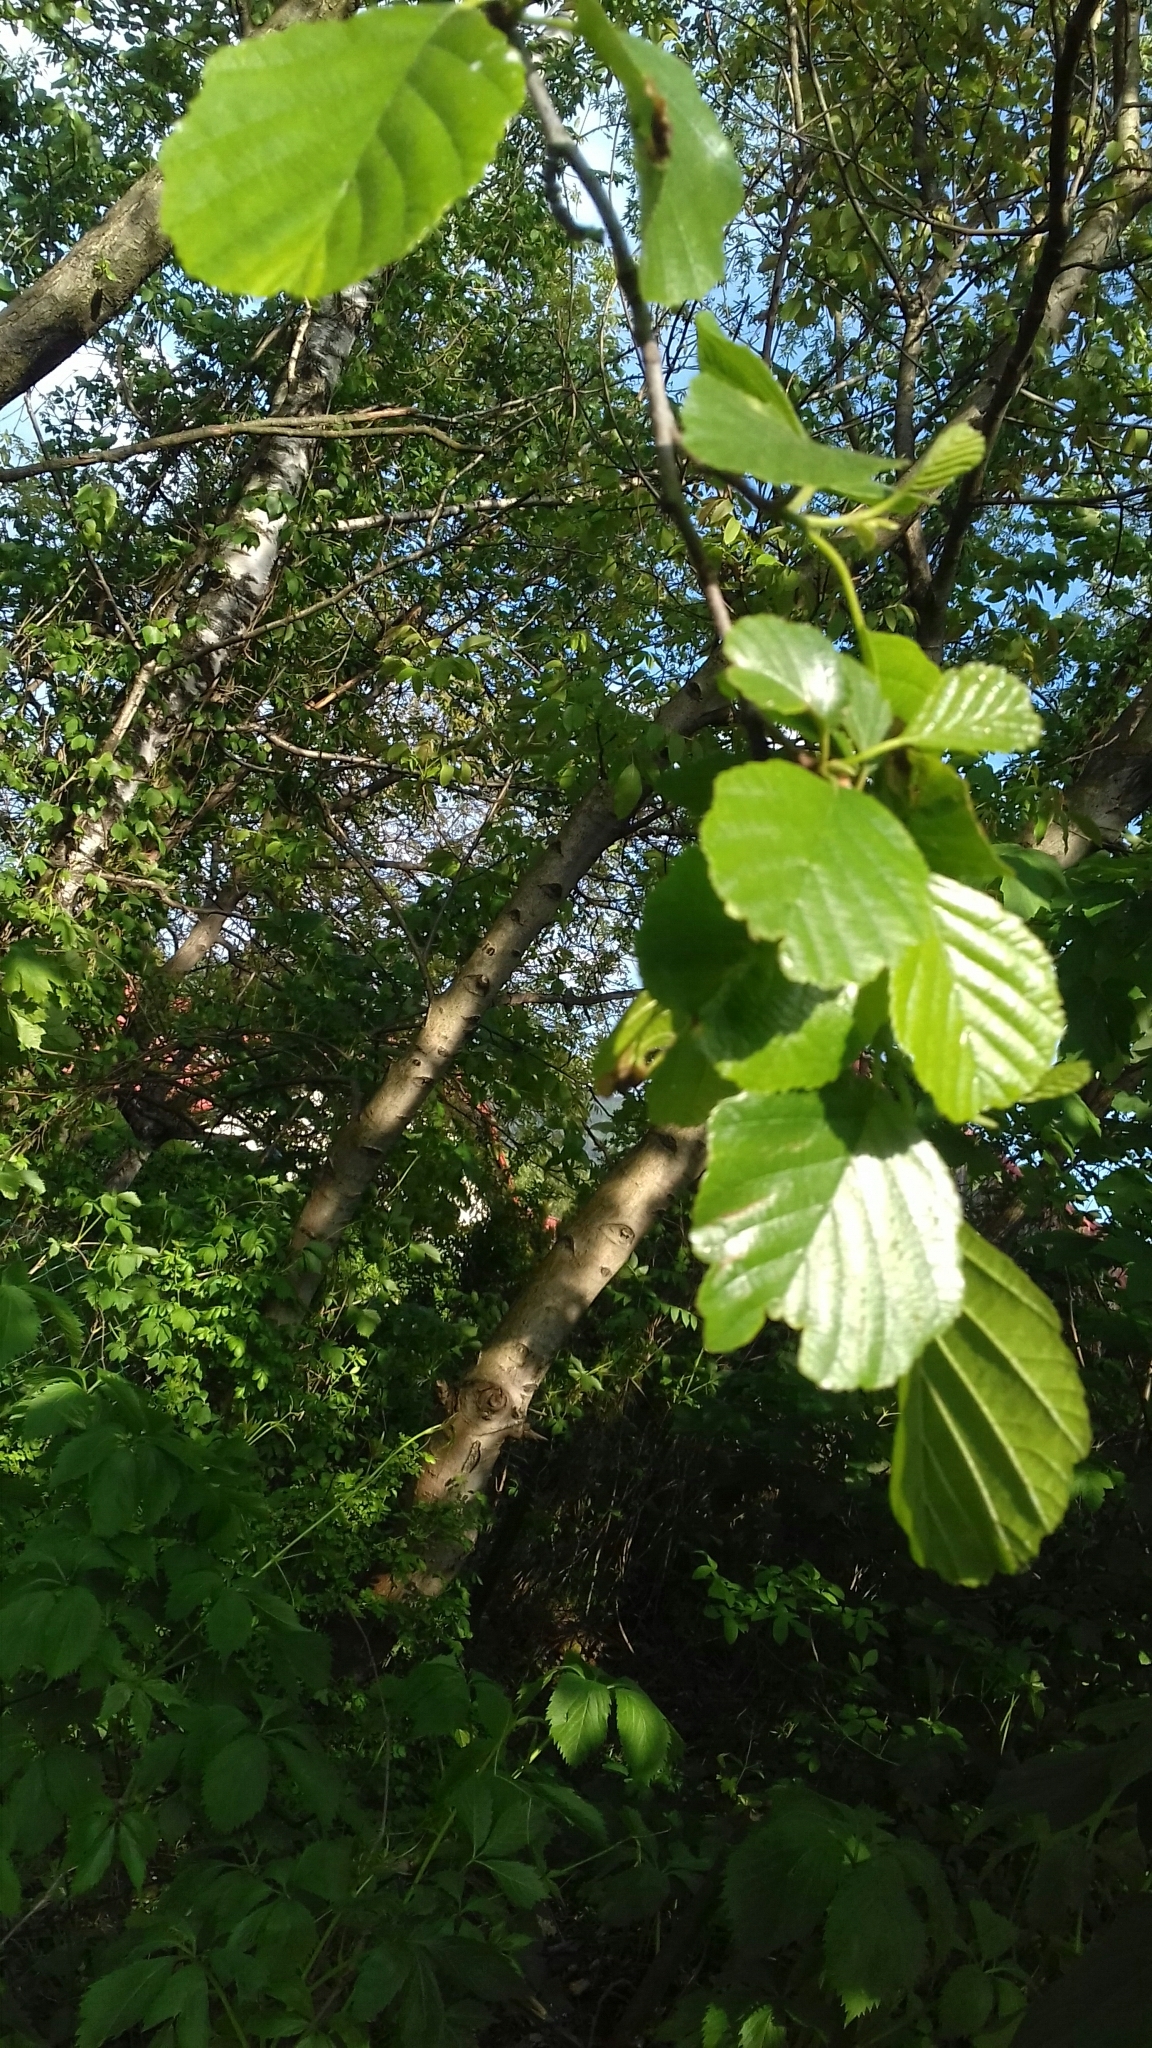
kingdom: Plantae
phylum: Tracheophyta
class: Magnoliopsida
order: Fagales
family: Betulaceae
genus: Alnus
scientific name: Alnus glutinosa
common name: Black alder
